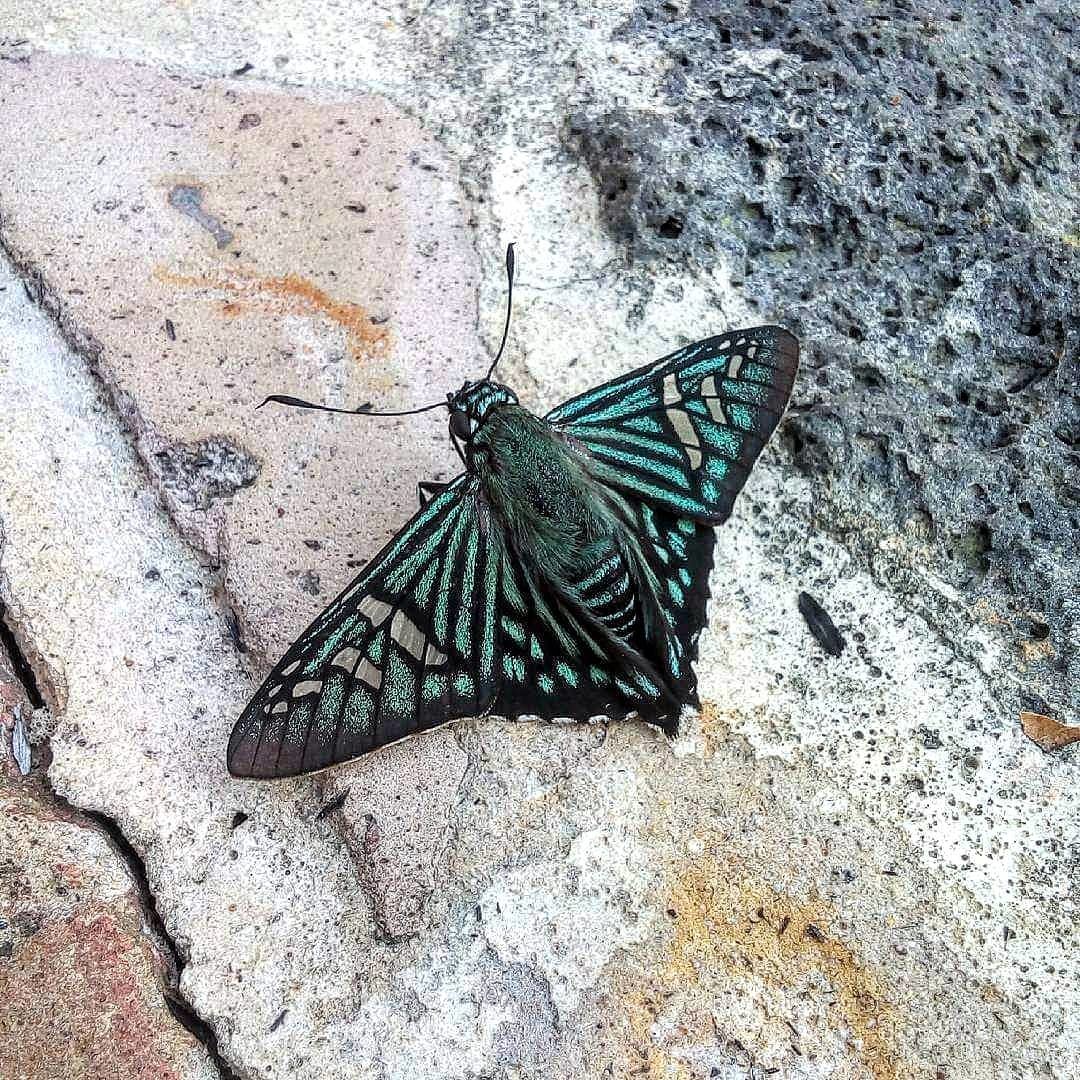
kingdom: Animalia
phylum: Arthropoda
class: Insecta
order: Lepidoptera
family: Hesperiidae
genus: Phocides
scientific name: Phocides urania
